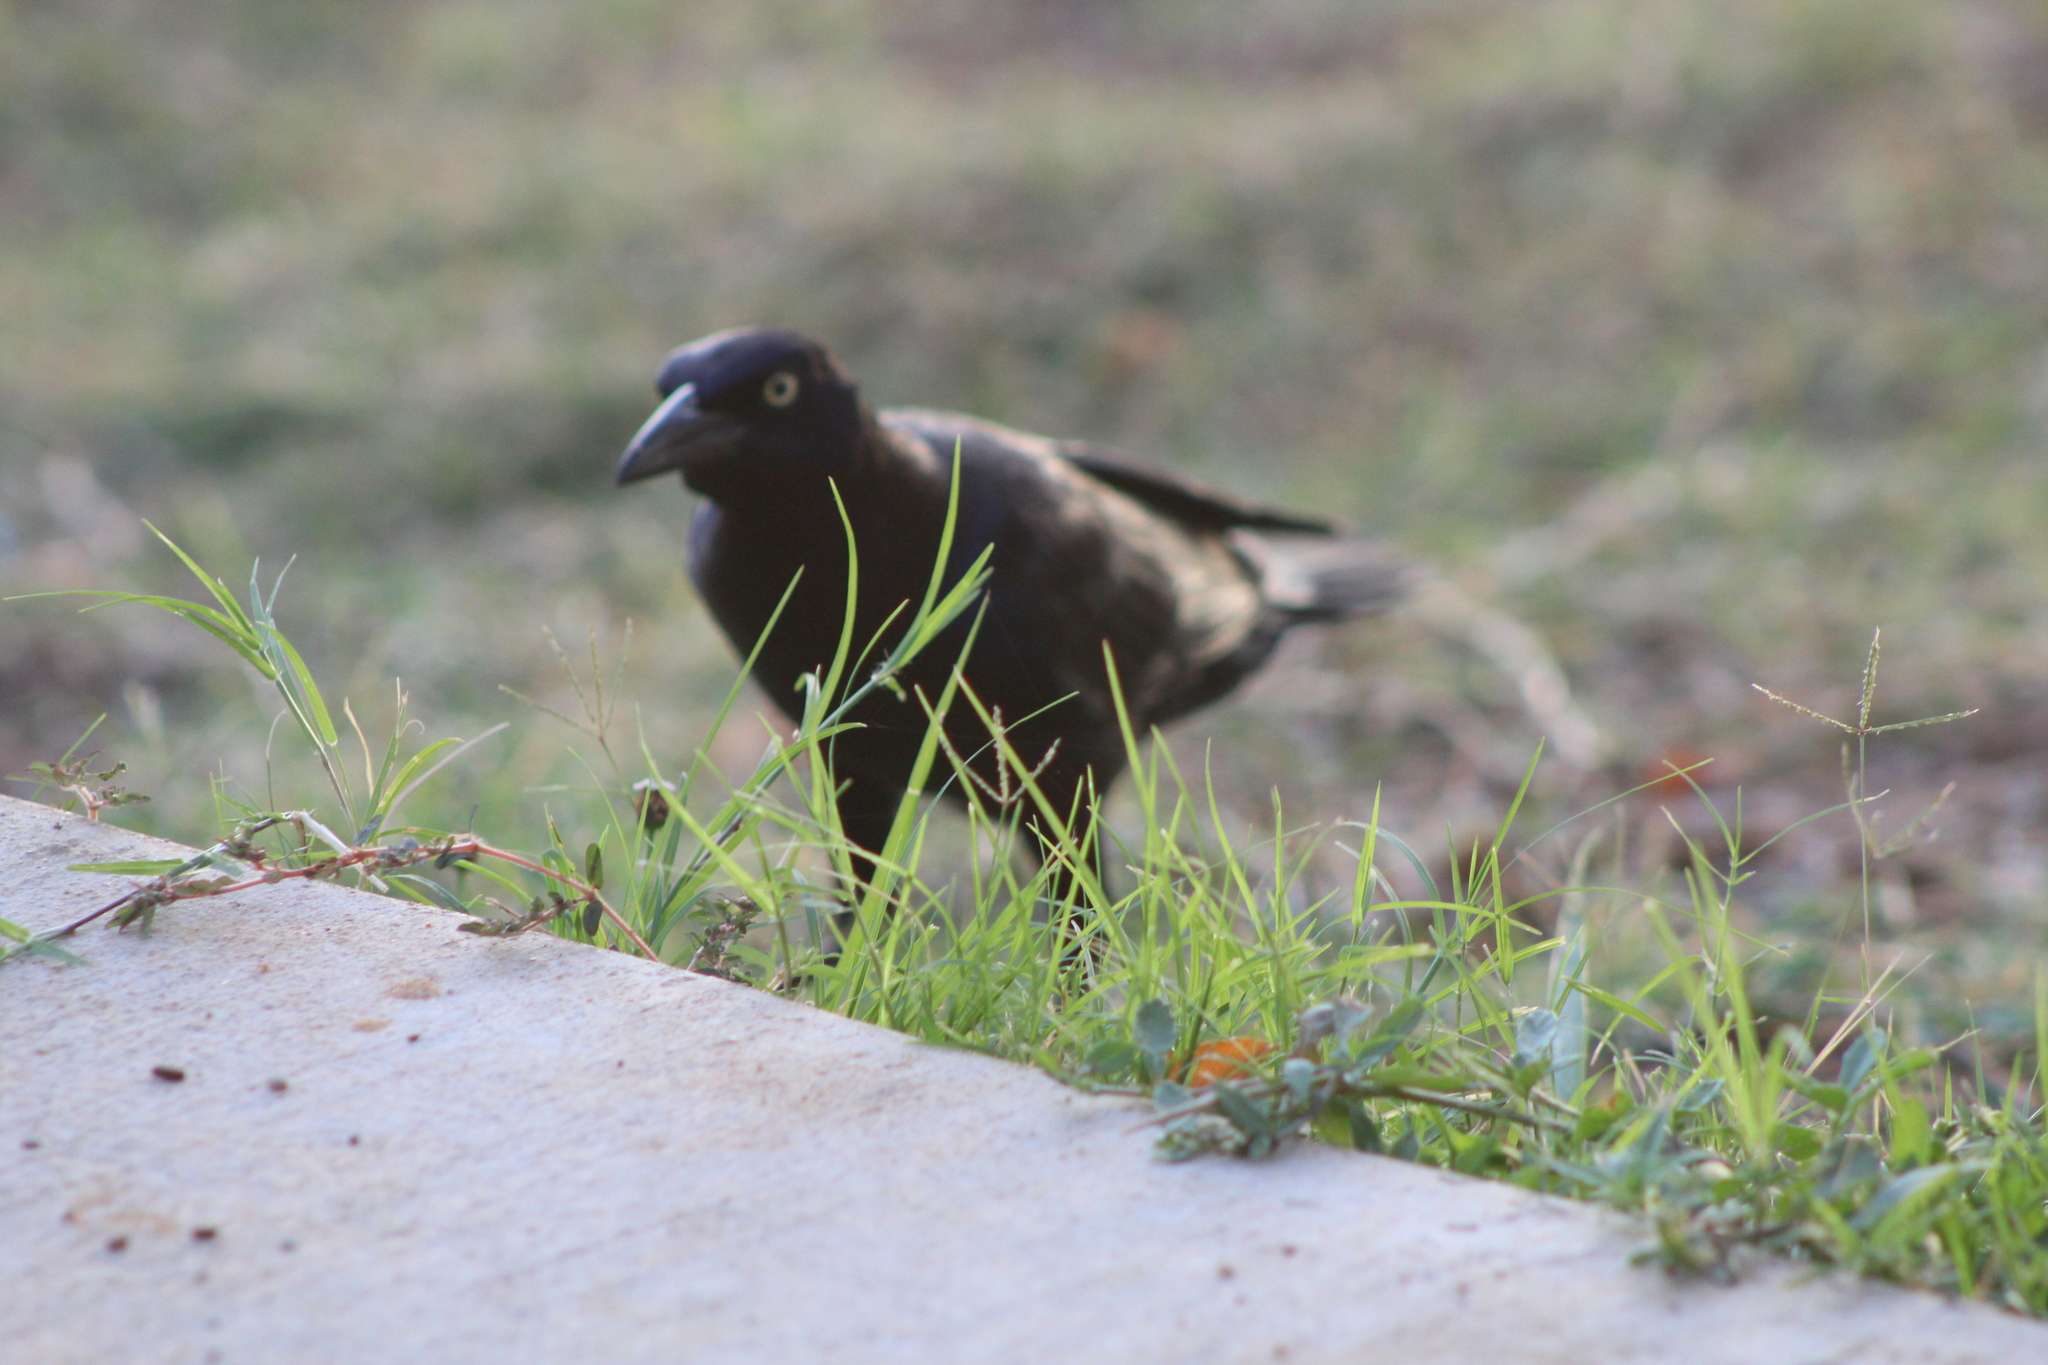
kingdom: Animalia
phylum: Chordata
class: Aves
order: Passeriformes
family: Icteridae
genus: Quiscalus
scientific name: Quiscalus mexicanus
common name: Great-tailed grackle
